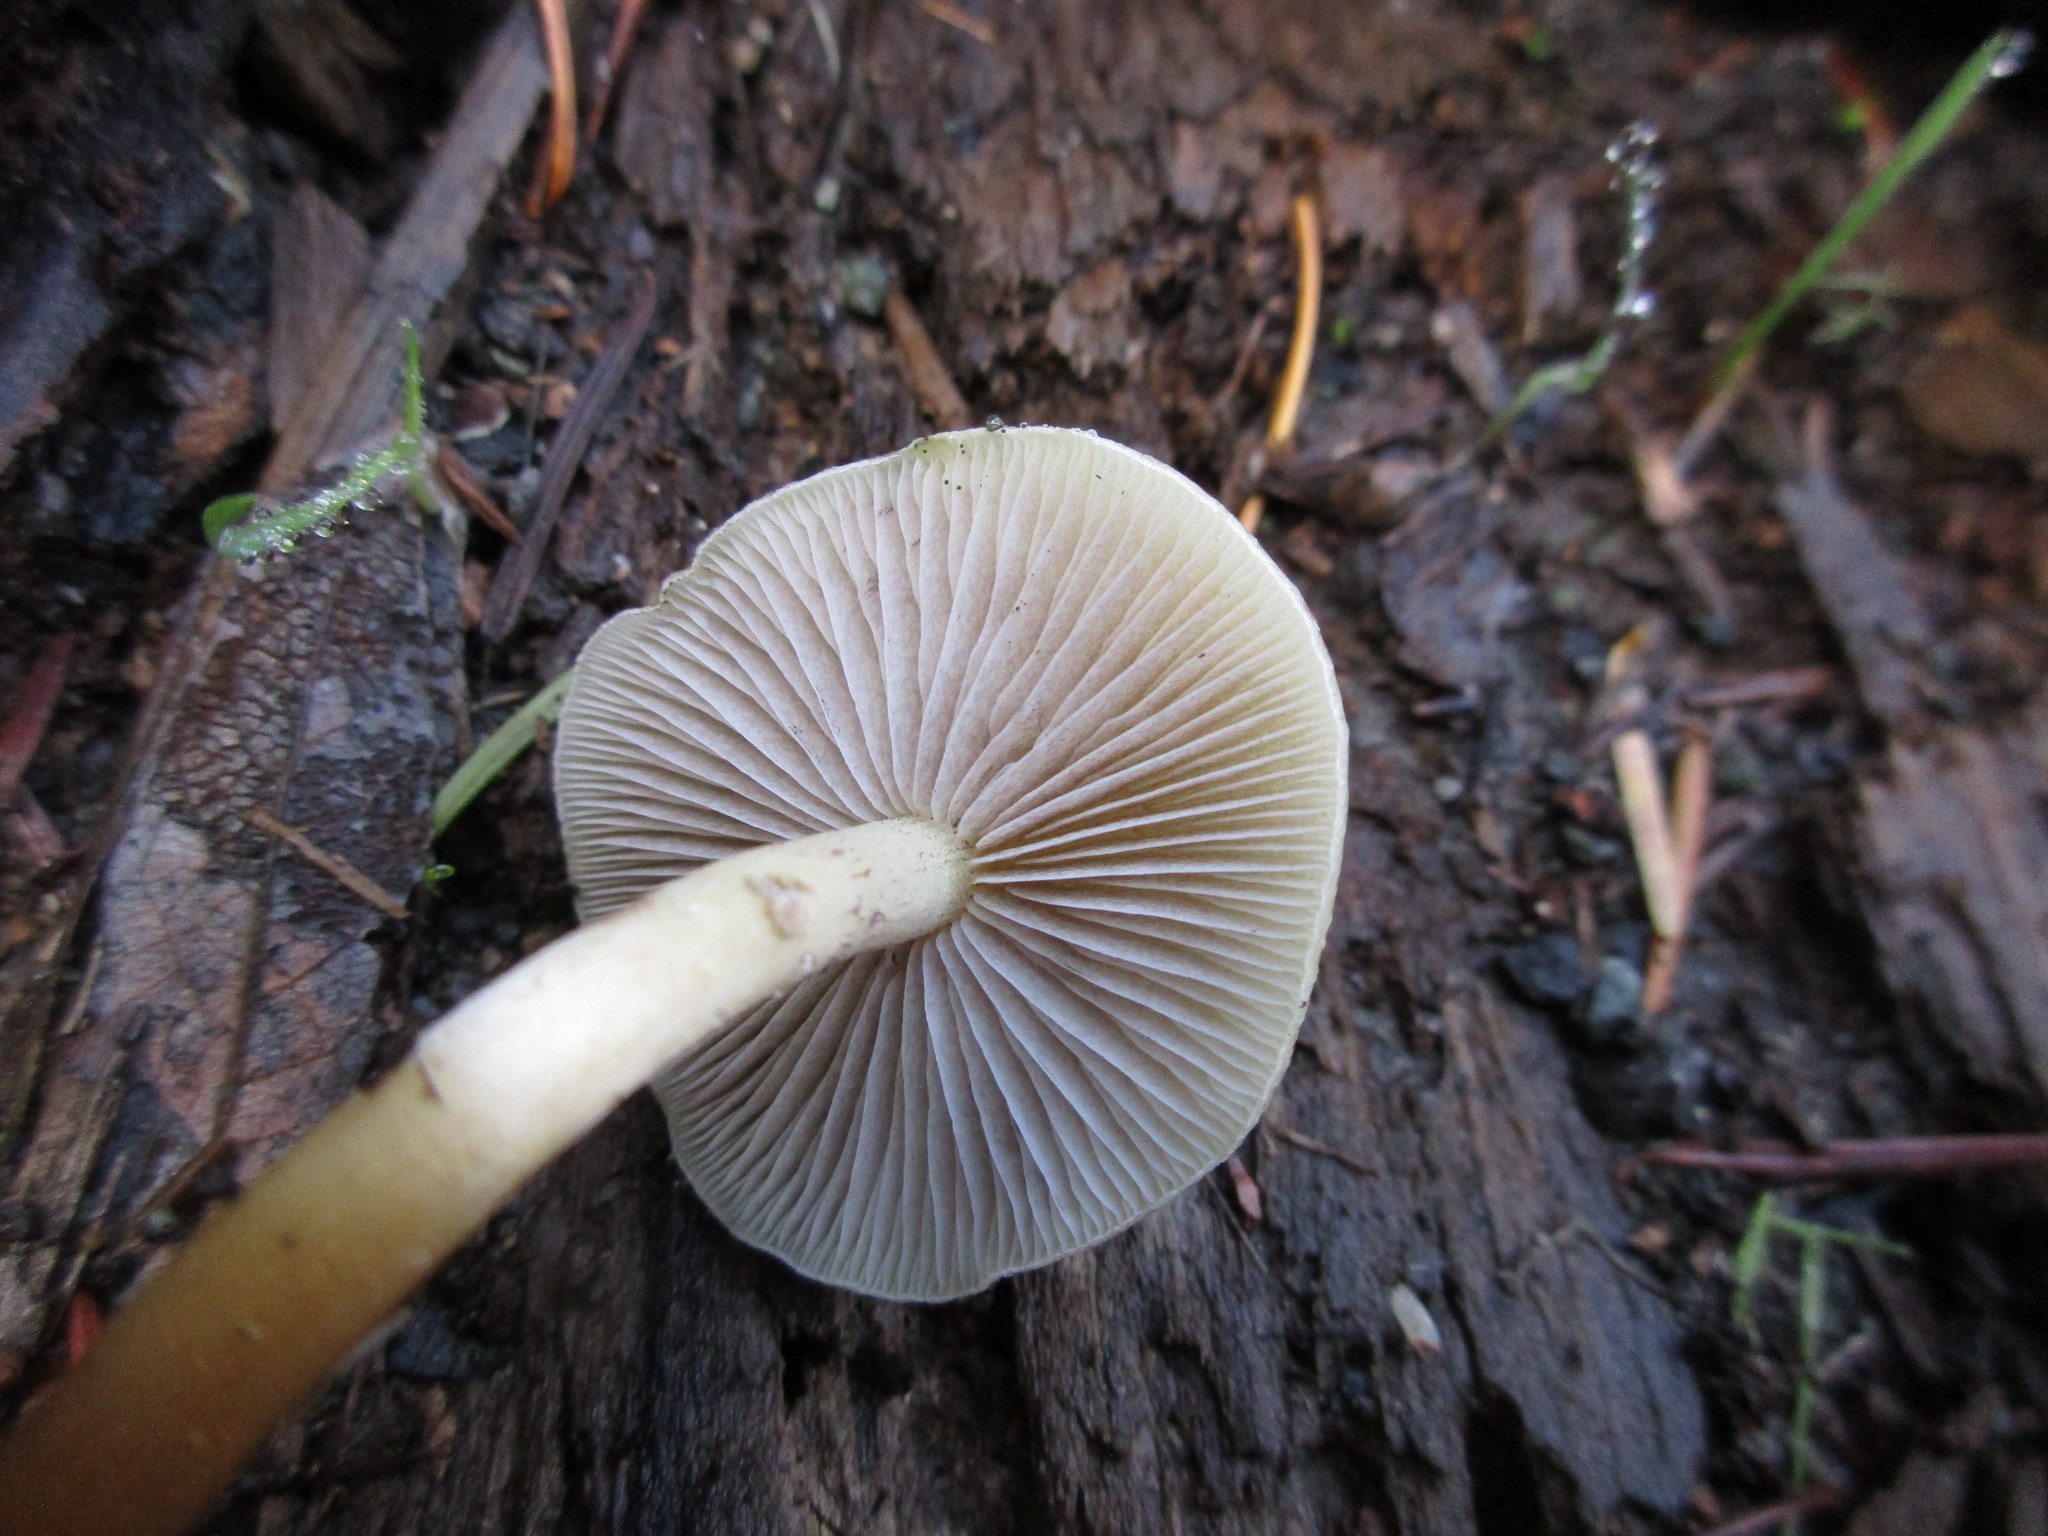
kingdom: Fungi
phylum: Basidiomycota
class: Agaricomycetes
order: Agaricales
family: Strophariaceae
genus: Hypholoma
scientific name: Hypholoma capnoides
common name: Conifer tuft
